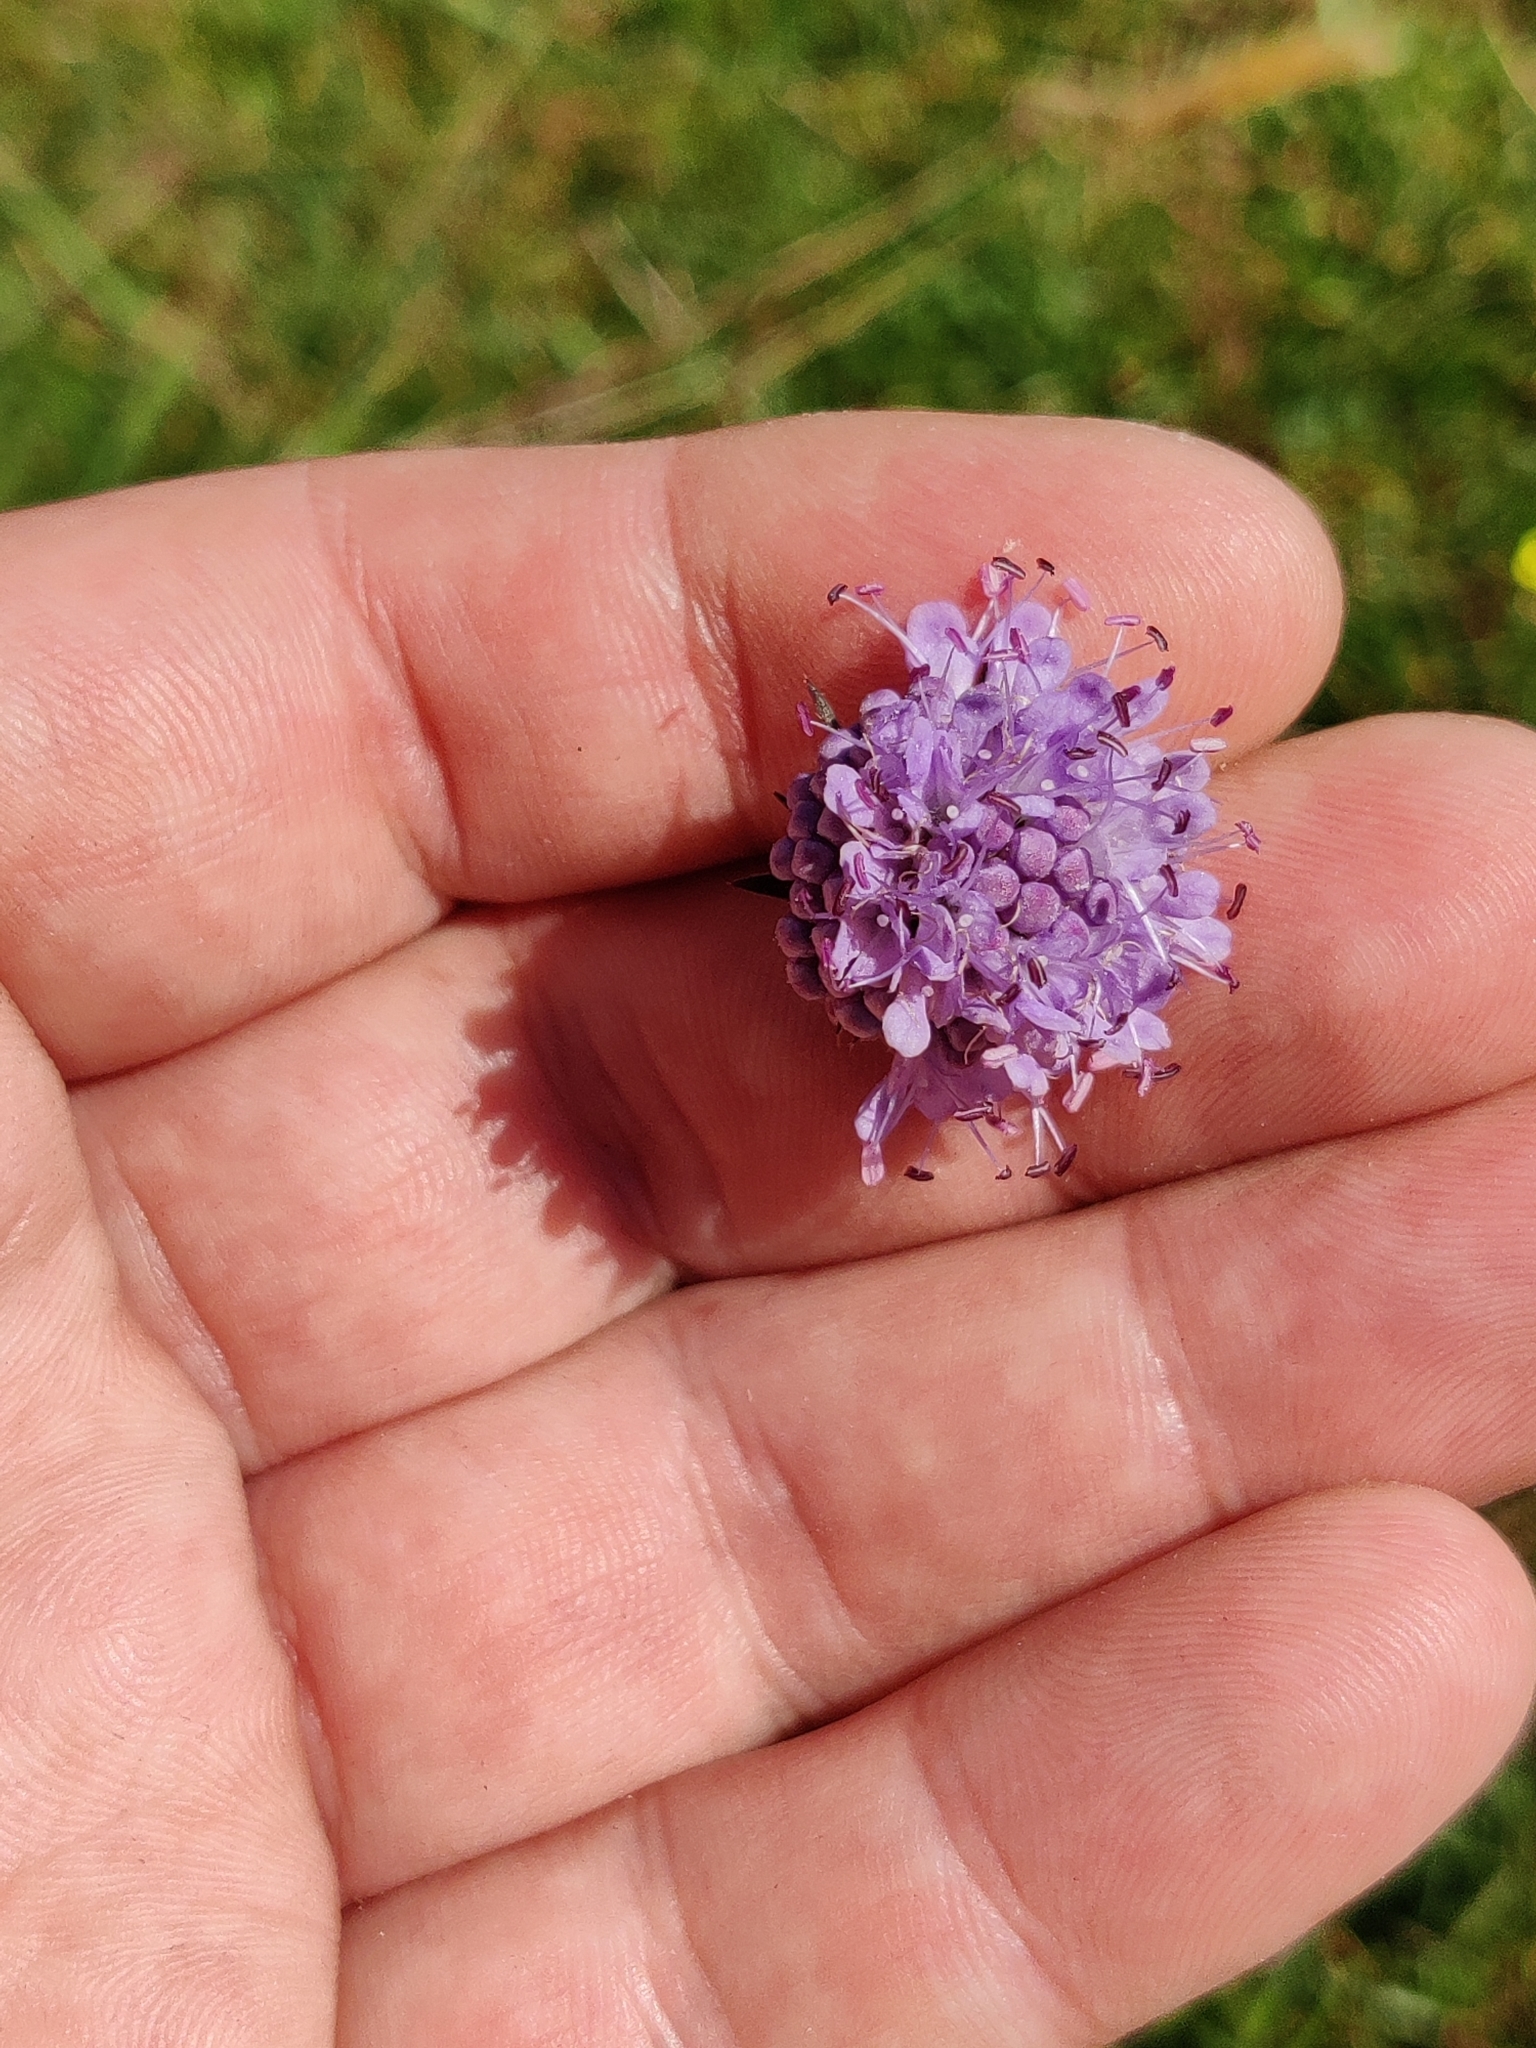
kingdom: Plantae
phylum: Tracheophyta
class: Magnoliopsida
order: Dipsacales
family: Caprifoliaceae
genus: Succisa
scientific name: Succisa pratensis
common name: Devil's-bit
